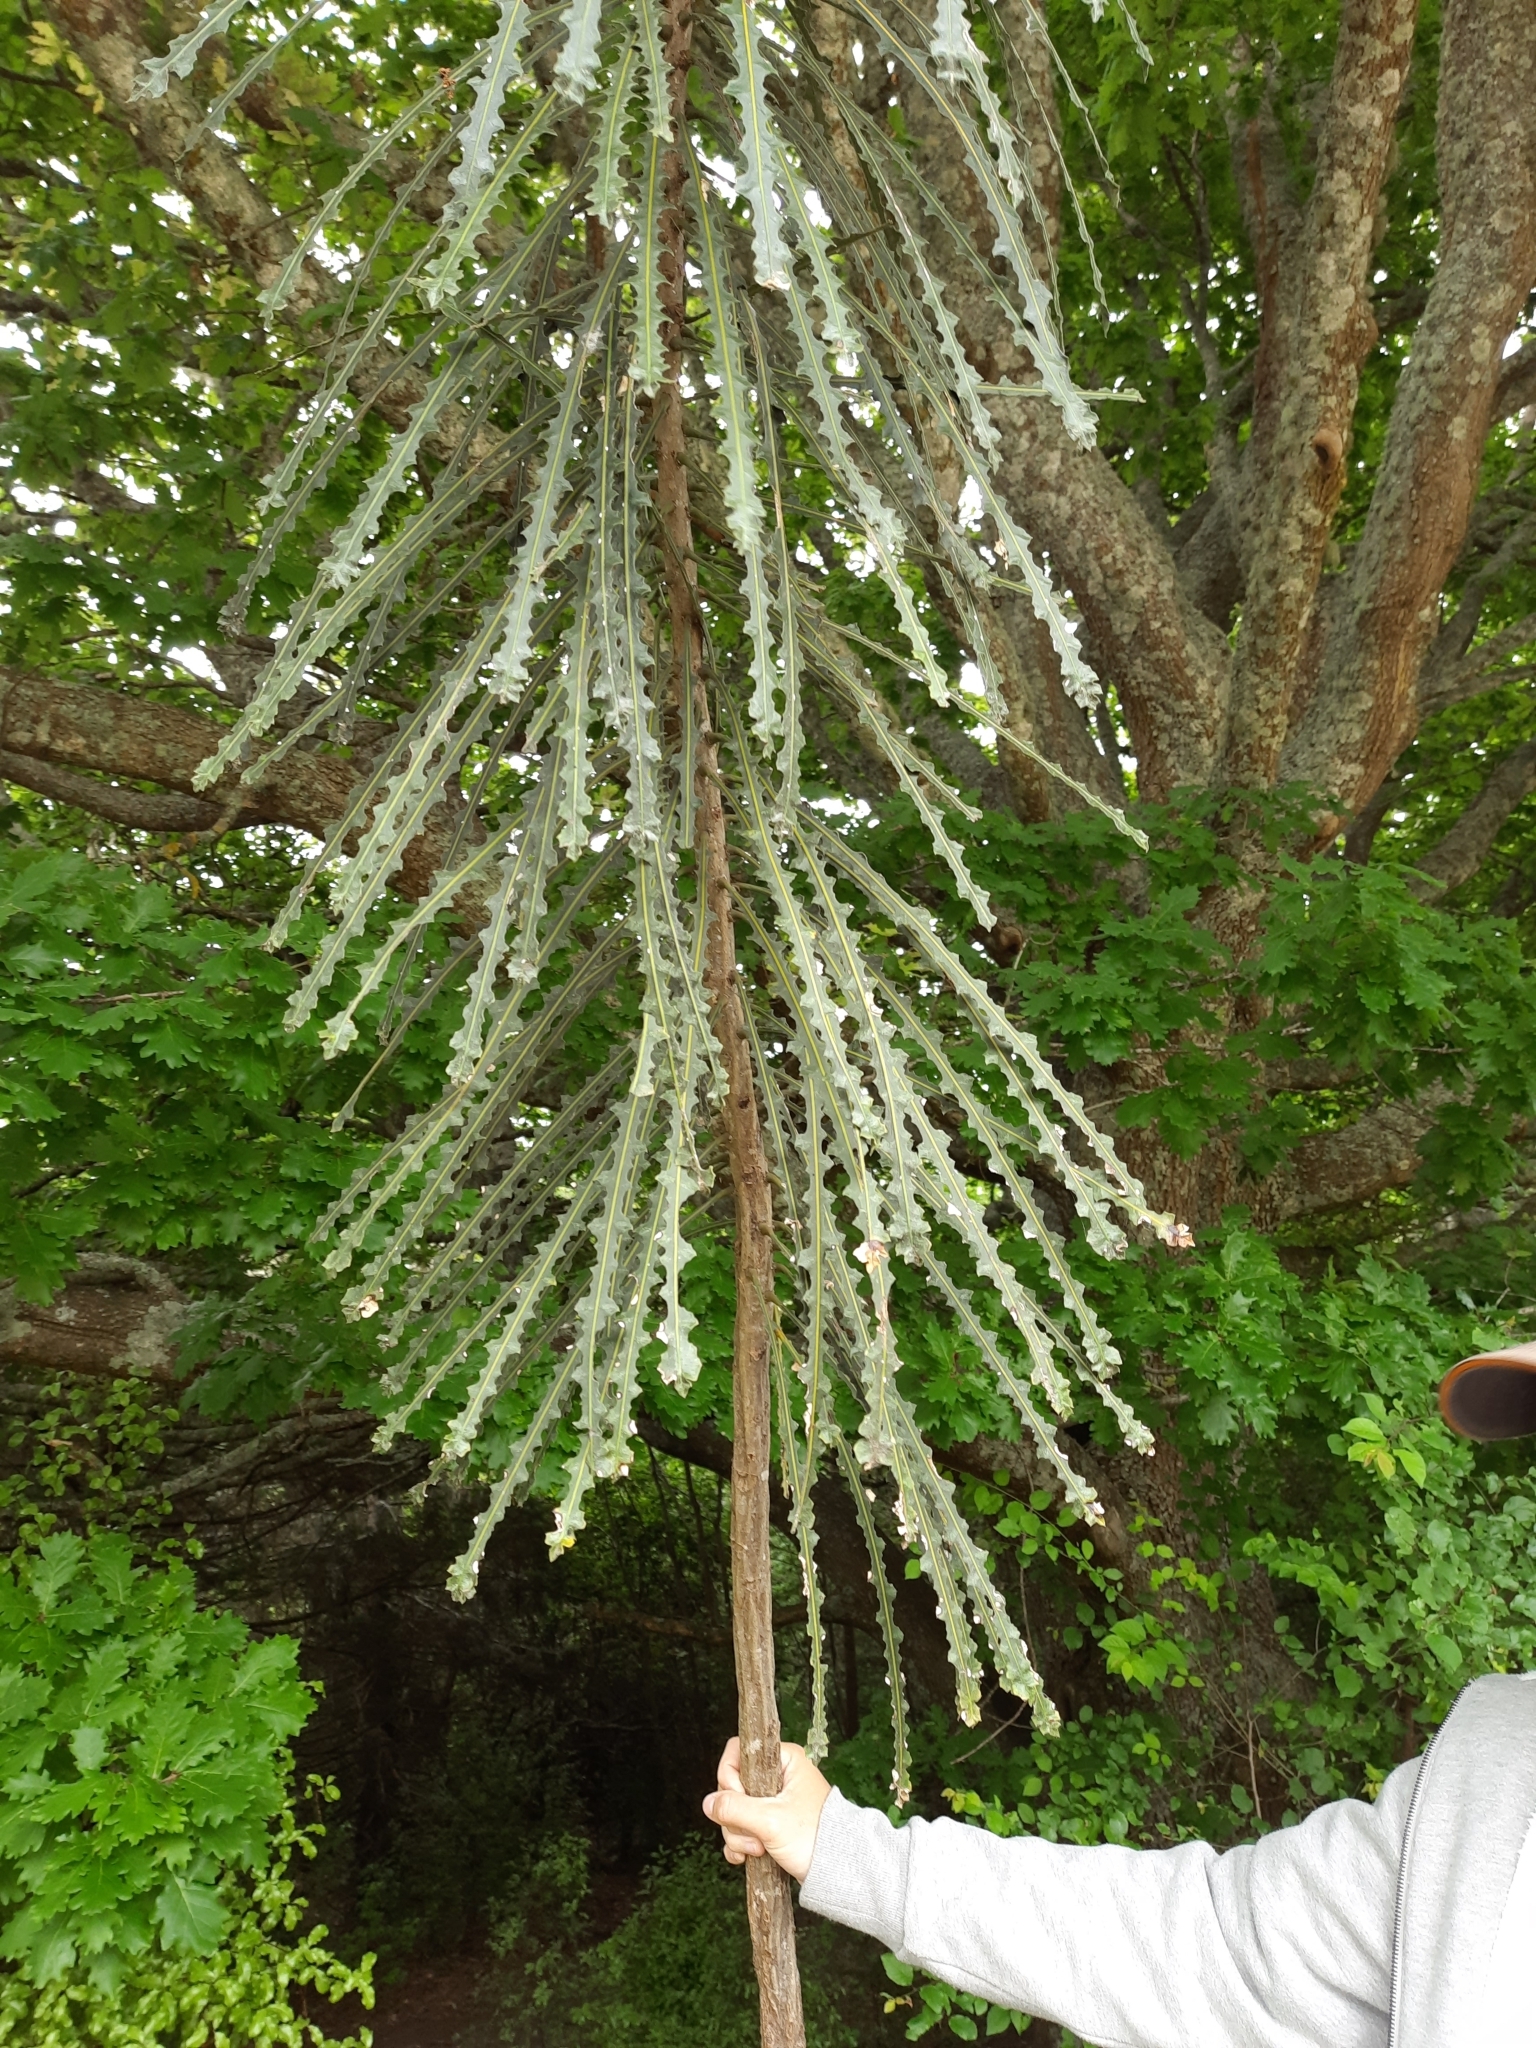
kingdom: Plantae
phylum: Tracheophyta
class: Magnoliopsida
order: Apiales
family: Araliaceae
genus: Pseudopanax
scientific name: Pseudopanax ferox
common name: Fierce lancewood
